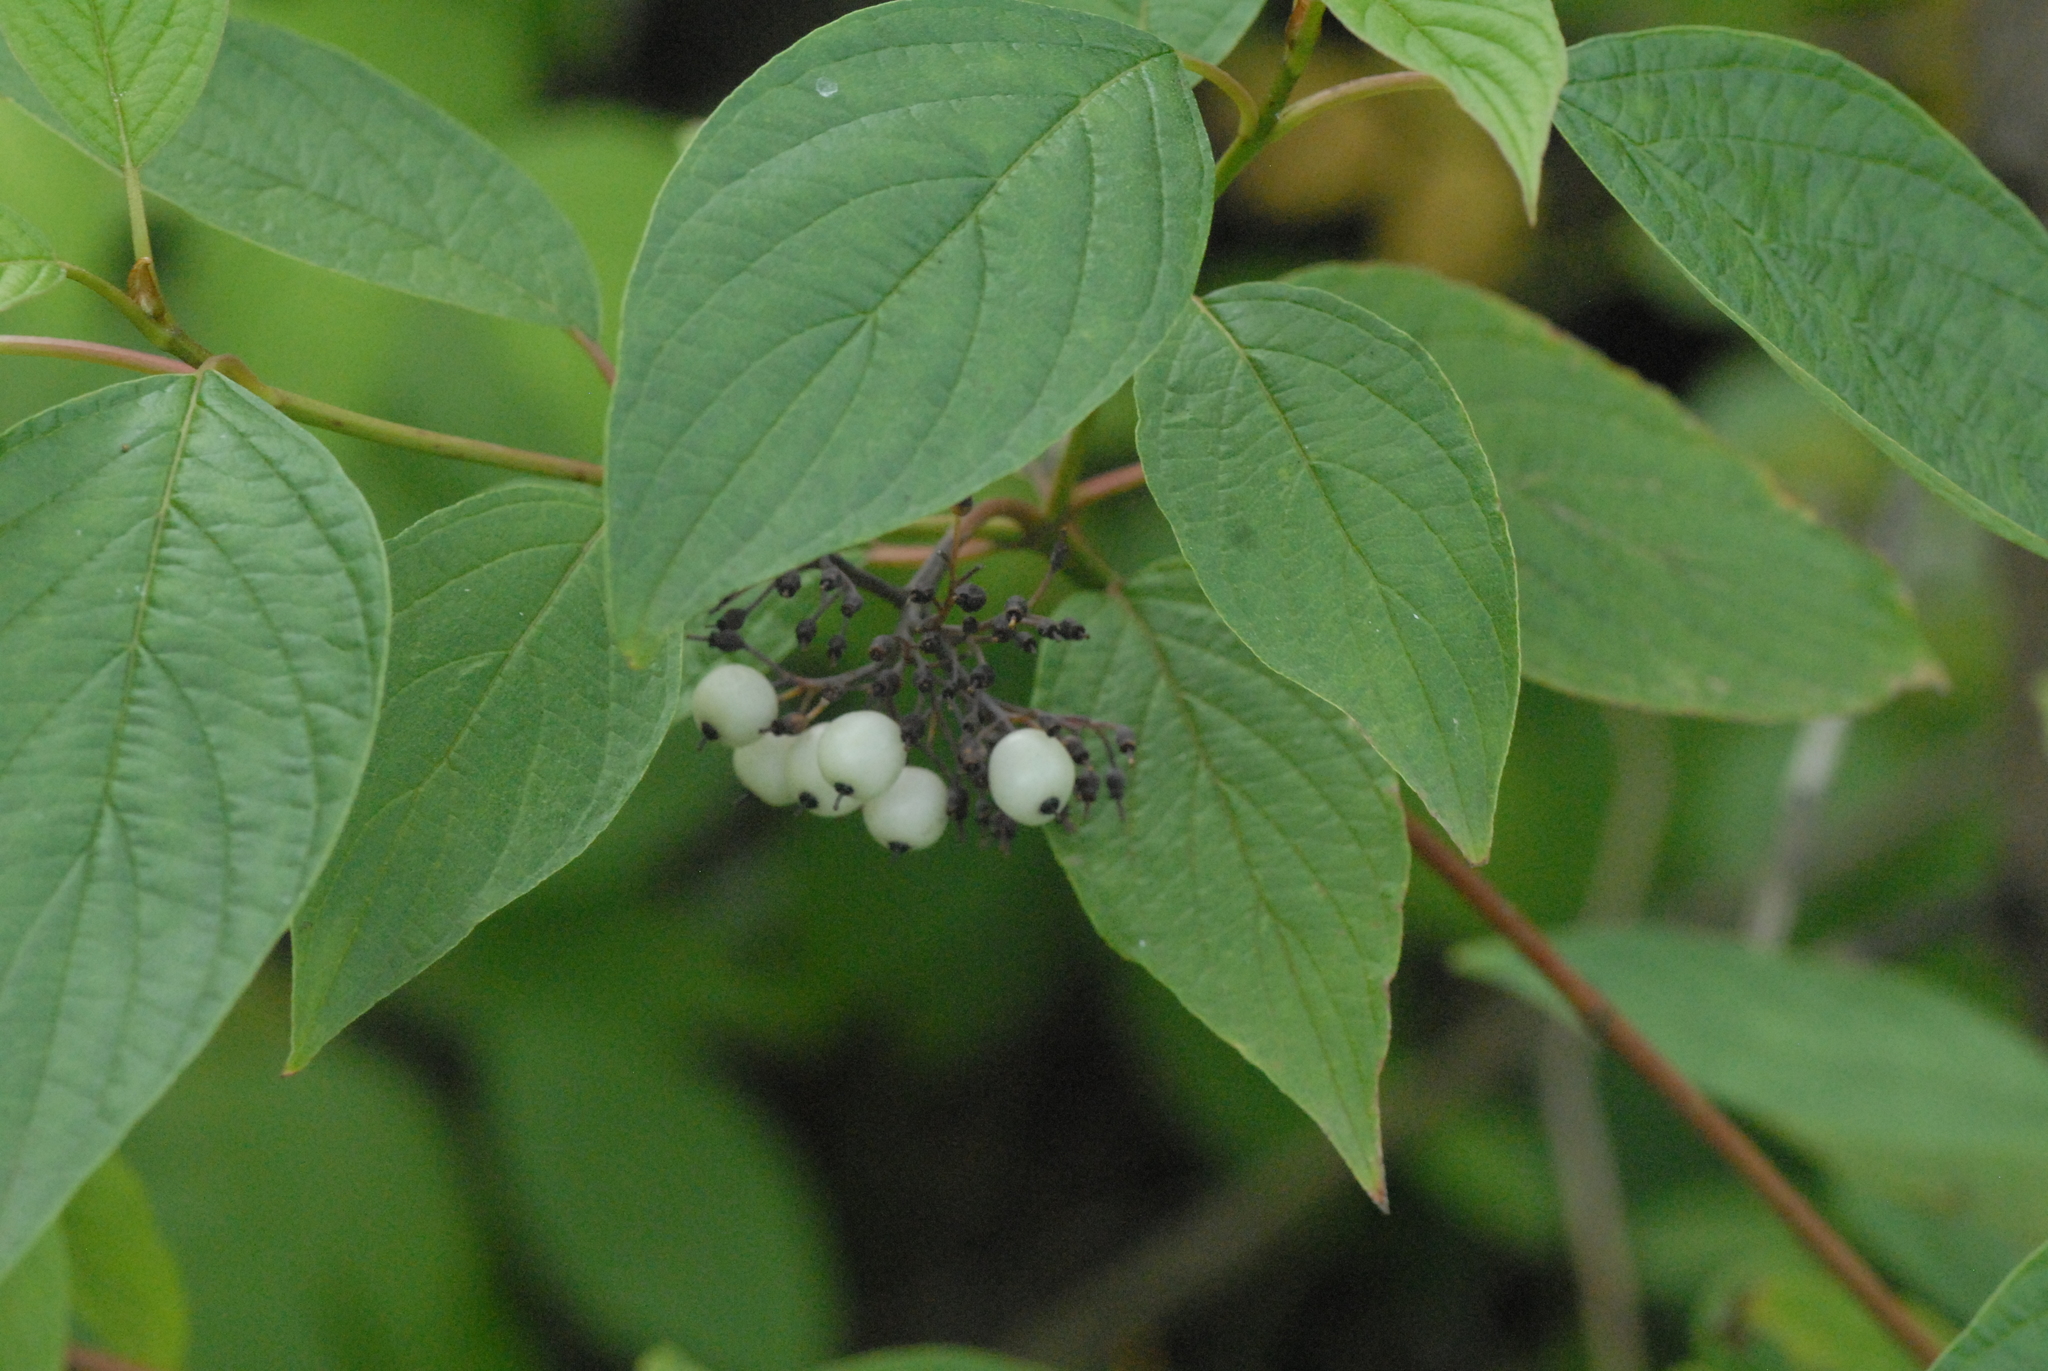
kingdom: Plantae
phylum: Tracheophyta
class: Magnoliopsida
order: Cornales
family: Cornaceae
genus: Cornus
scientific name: Cornus alba
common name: White dogwood
